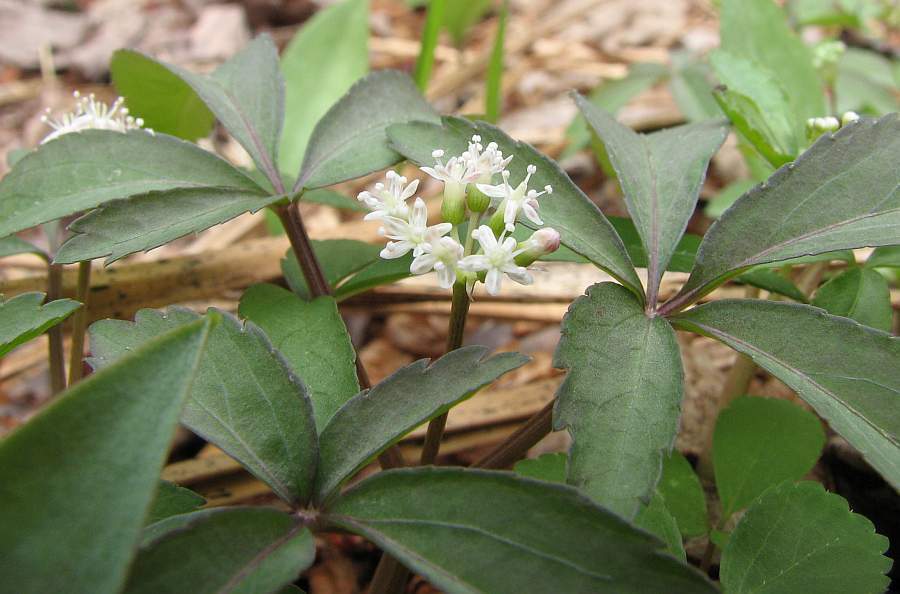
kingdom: Plantae
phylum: Tracheophyta
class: Magnoliopsida
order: Apiales
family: Araliaceae
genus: Panax
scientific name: Panax trifolius
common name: Dwarf ginseng
